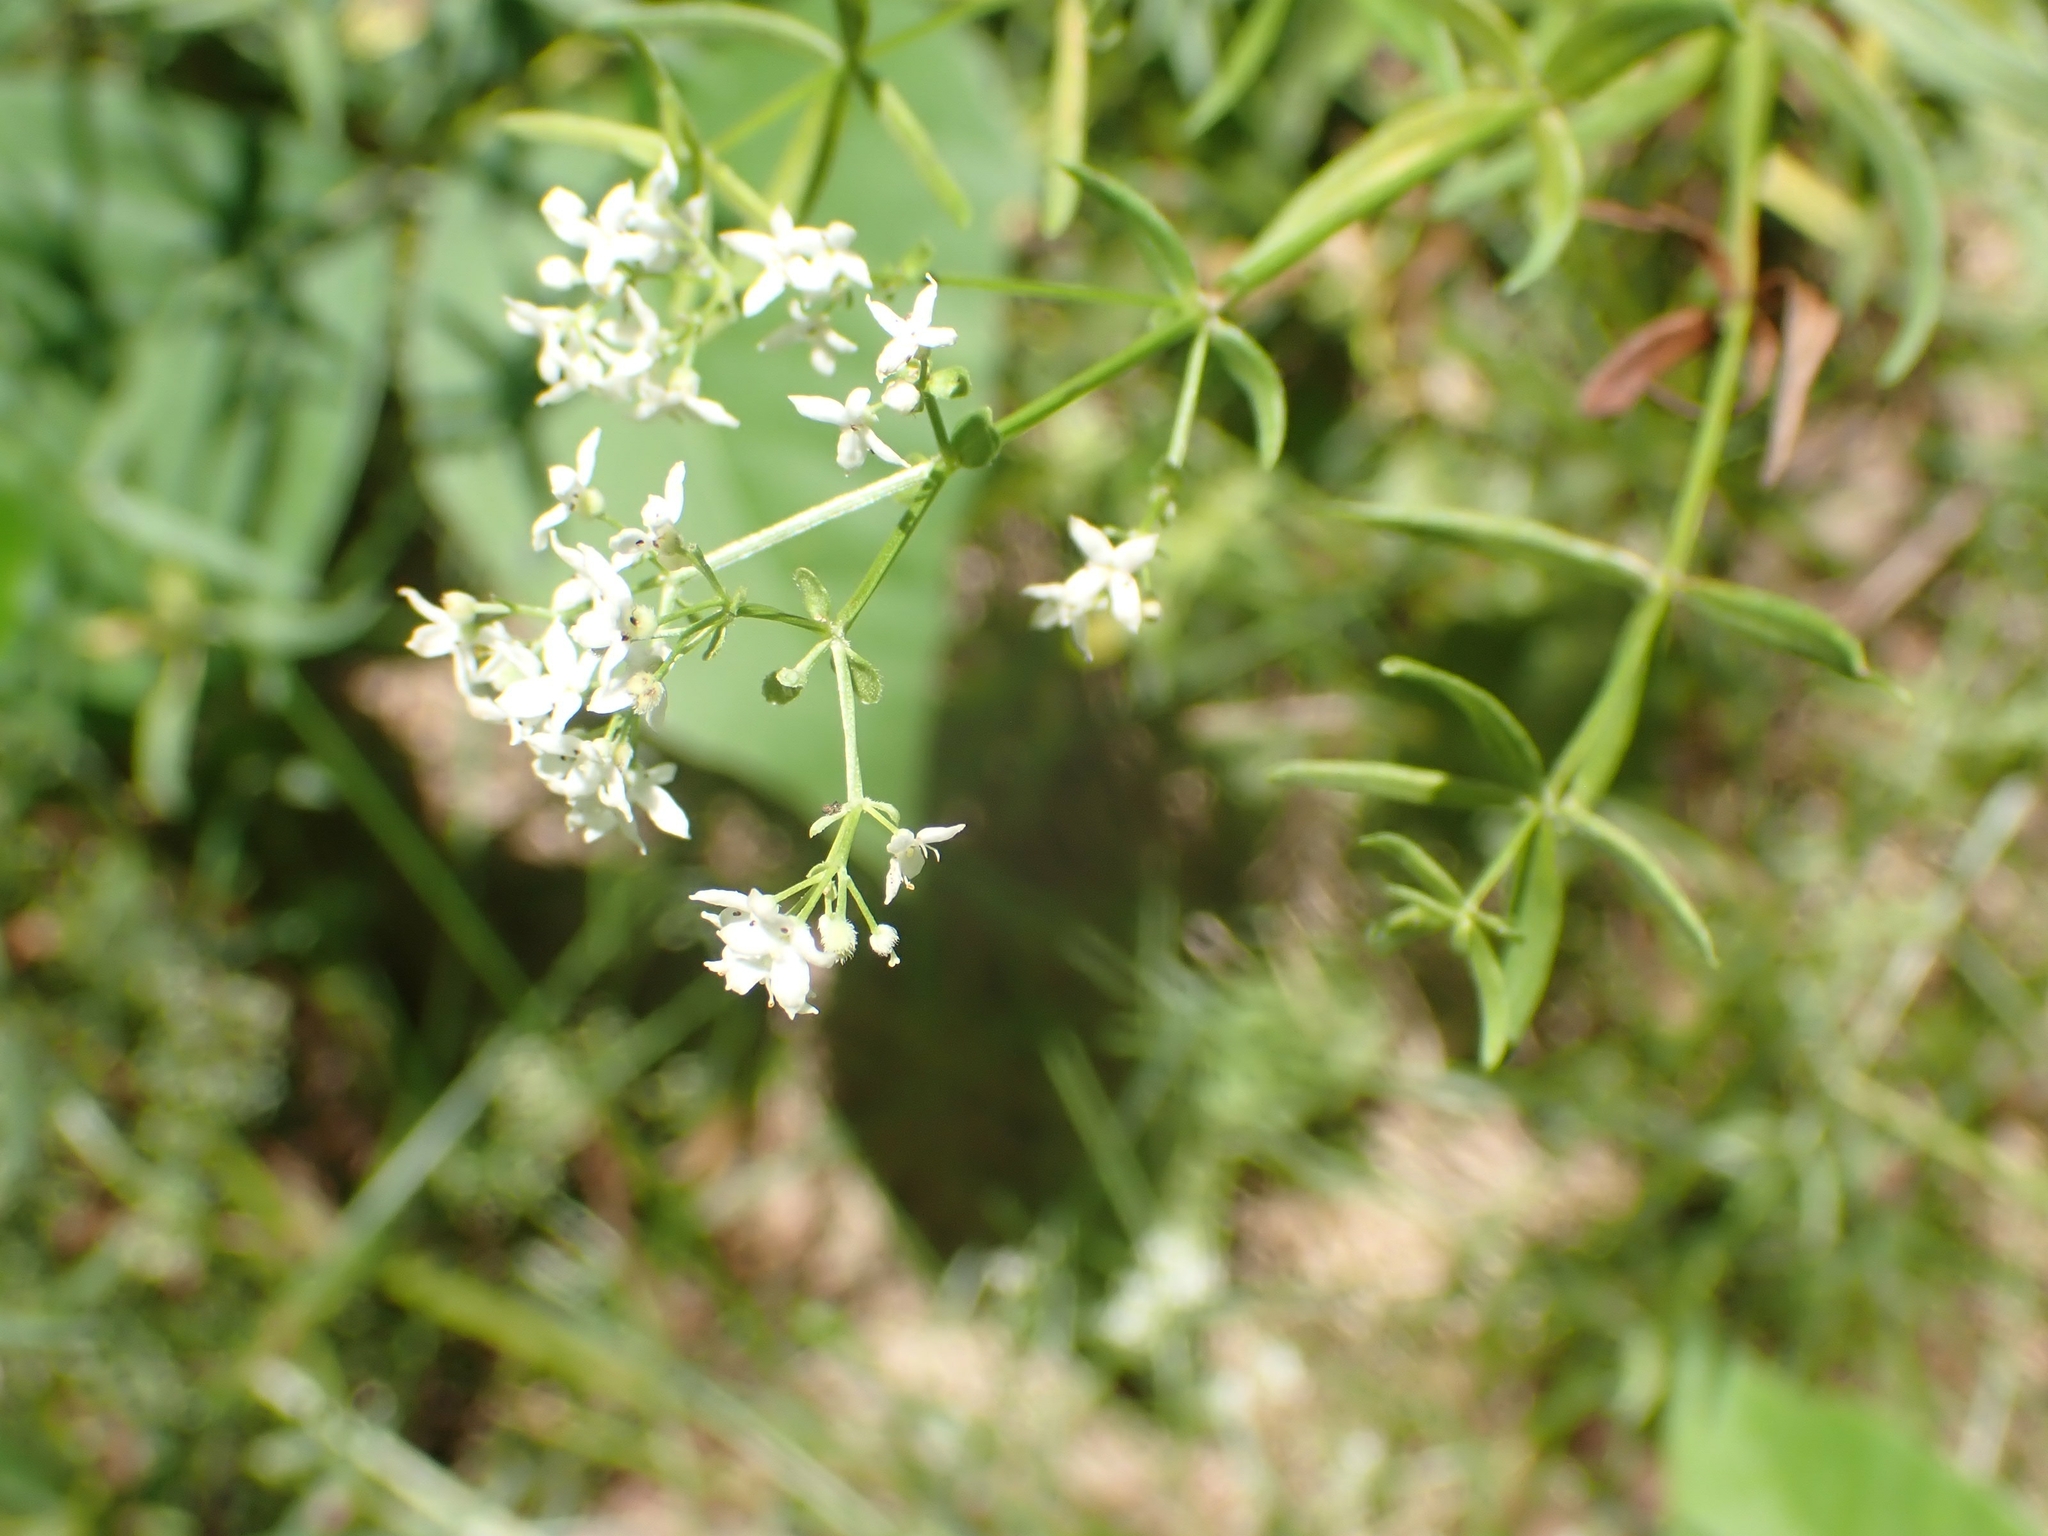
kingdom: Plantae
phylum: Tracheophyta
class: Magnoliopsida
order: Gentianales
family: Rubiaceae
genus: Galium
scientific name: Galium boreale
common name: Northern bedstraw
